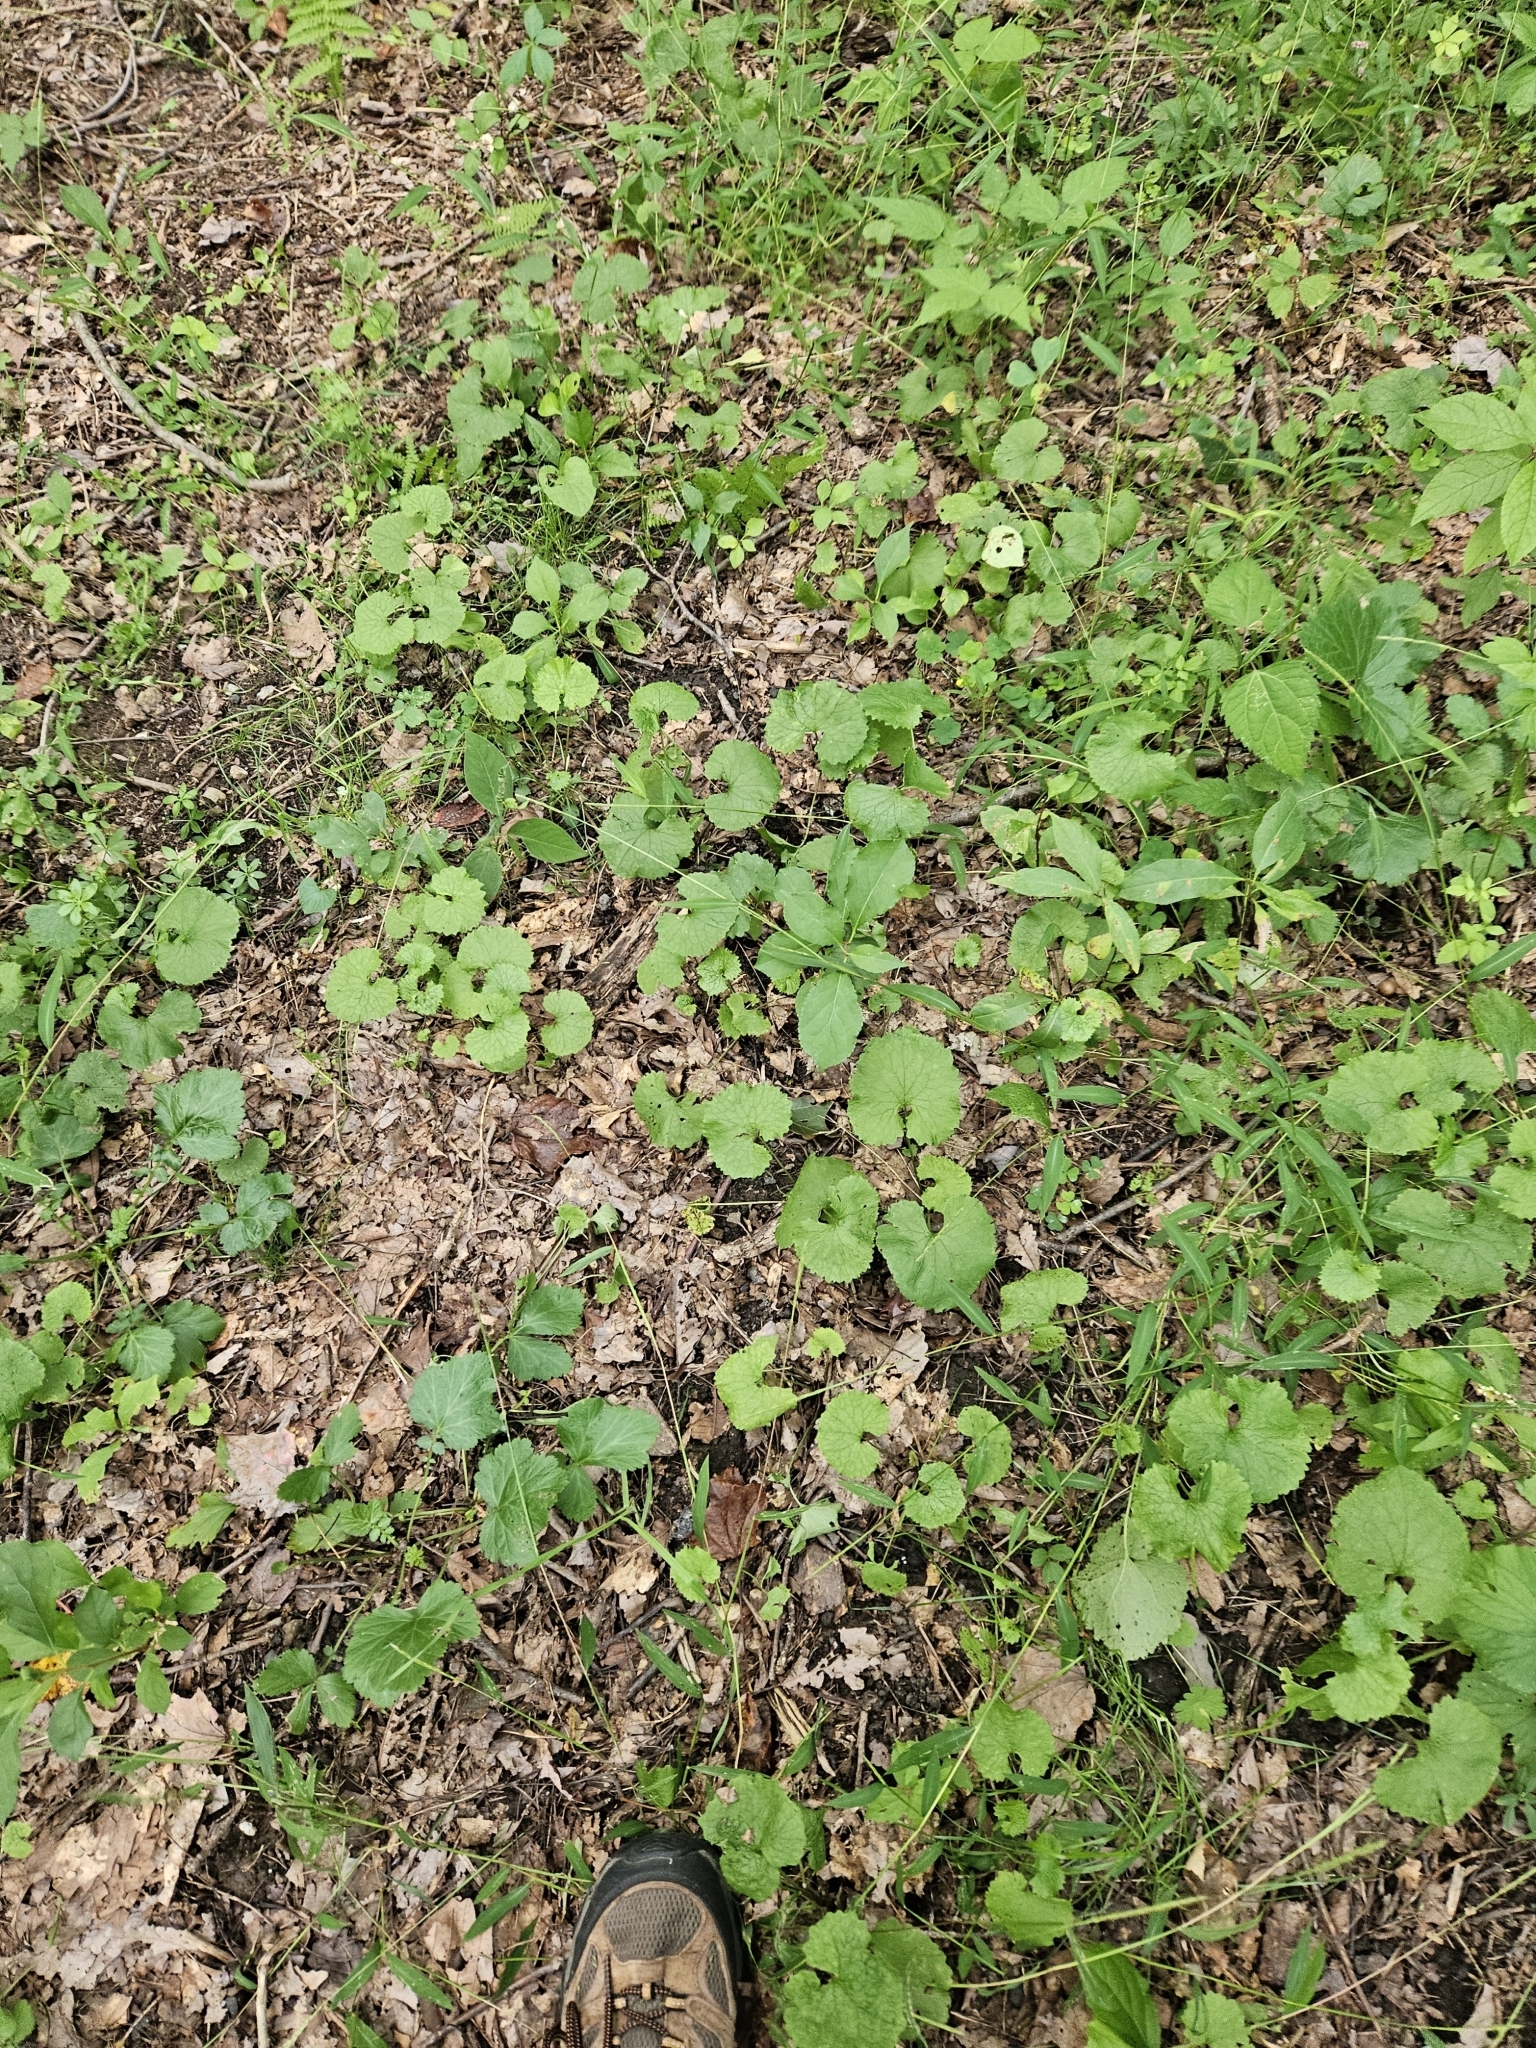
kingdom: Plantae
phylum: Tracheophyta
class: Magnoliopsida
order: Brassicales
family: Brassicaceae
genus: Alliaria
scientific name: Alliaria petiolata
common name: Garlic mustard
